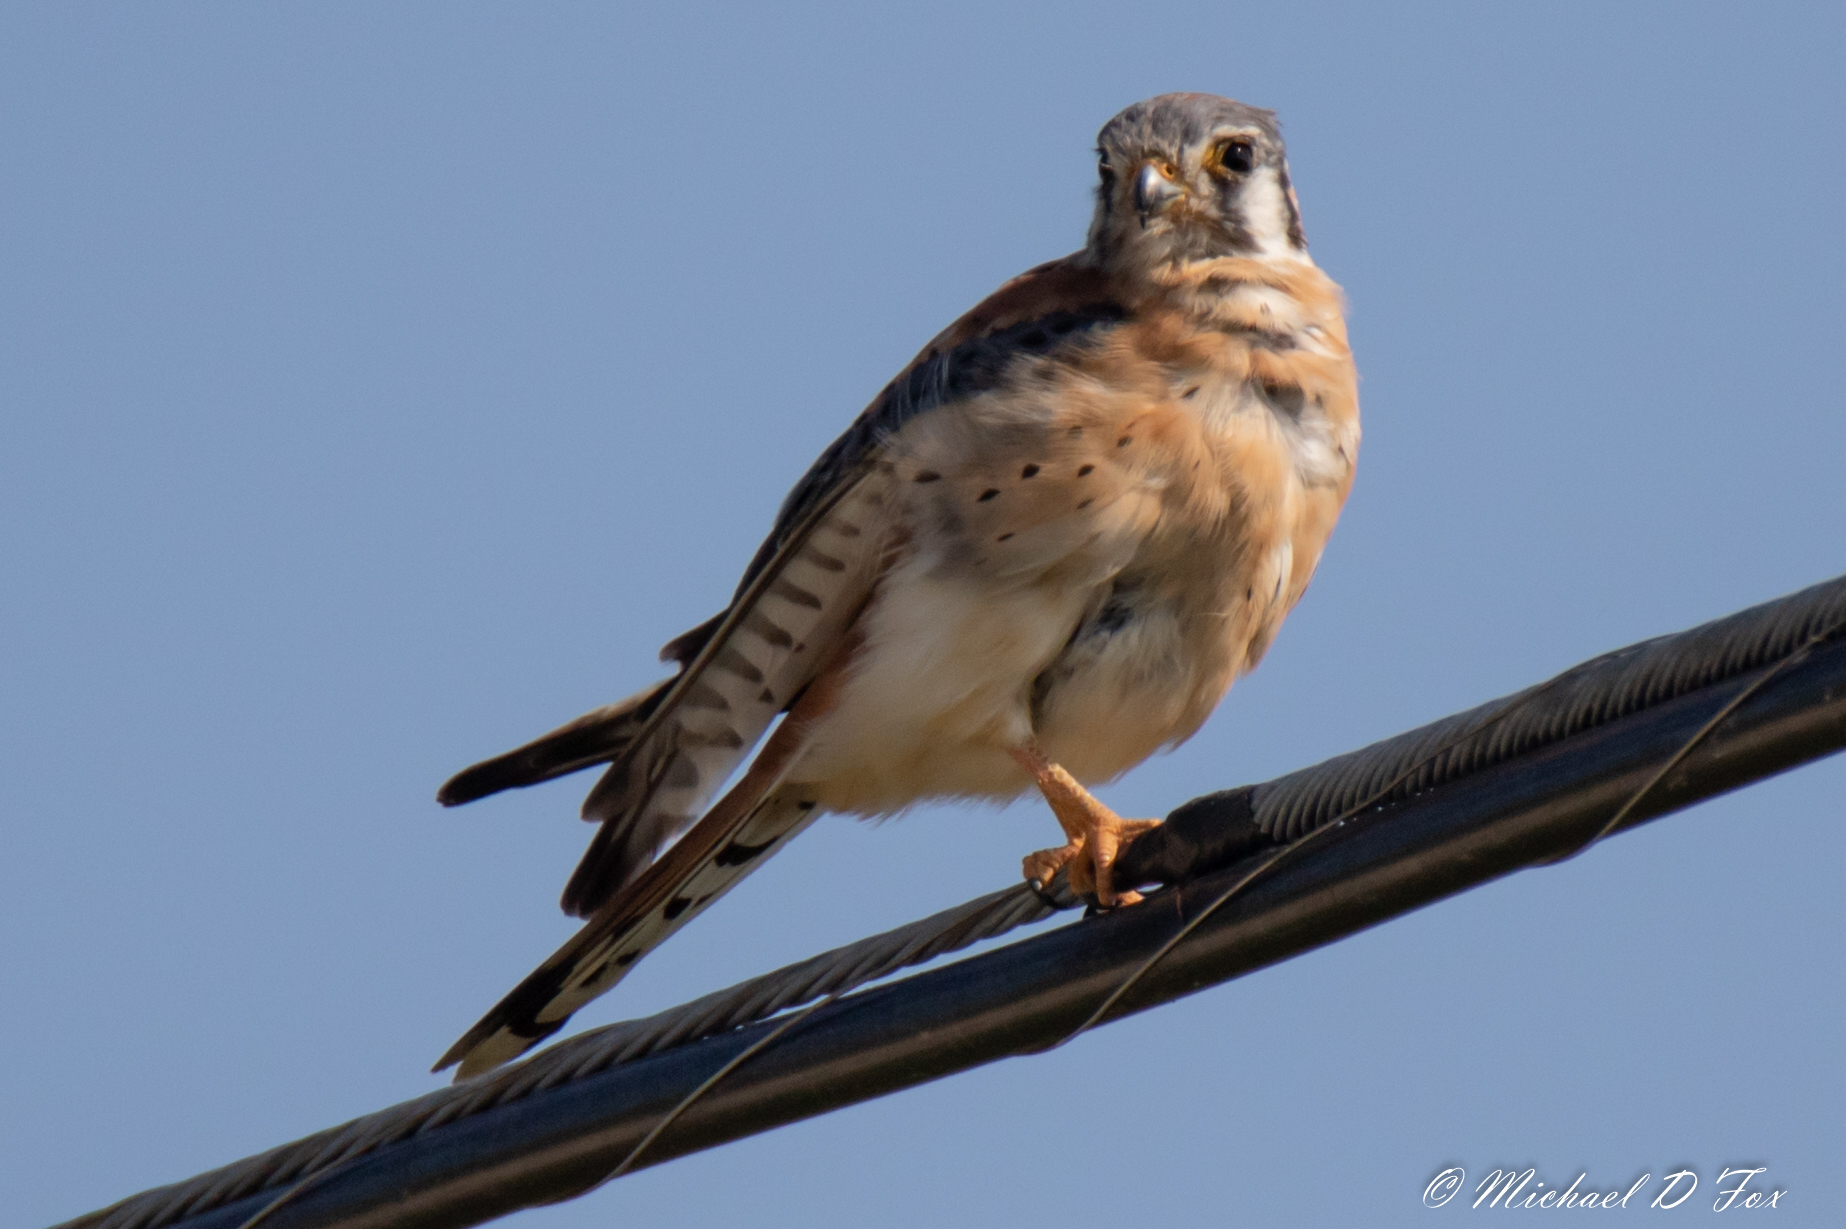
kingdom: Animalia
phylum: Chordata
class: Aves
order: Falconiformes
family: Falconidae
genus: Falco
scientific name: Falco sparverius
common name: American kestrel
